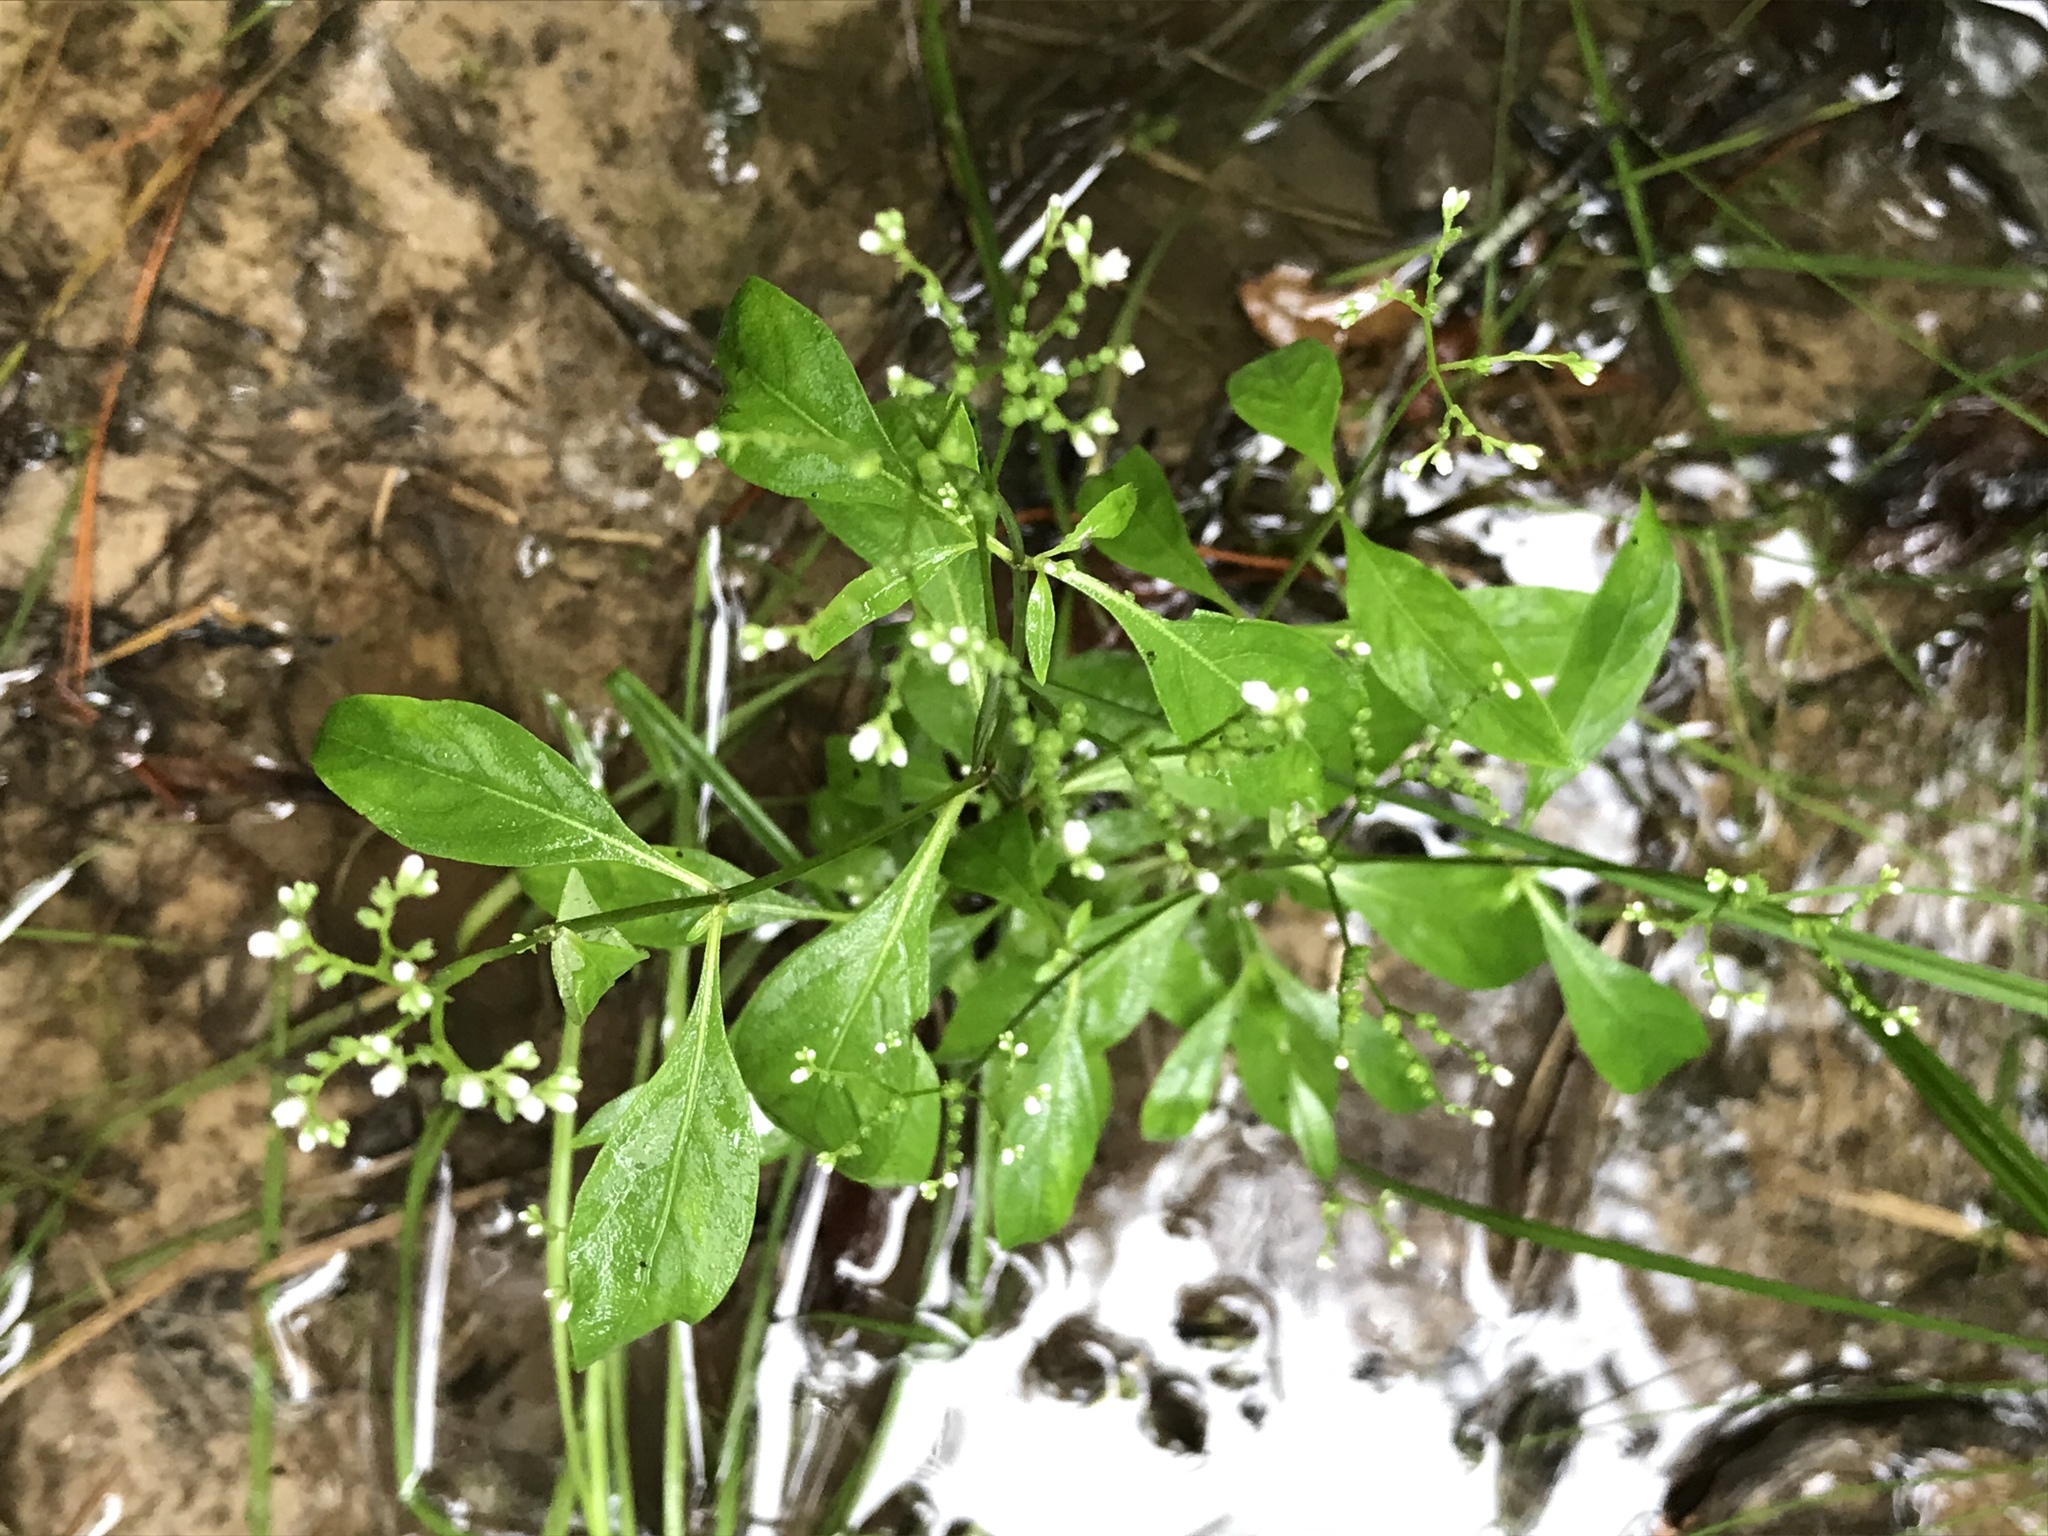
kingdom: Plantae
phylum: Tracheophyta
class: Magnoliopsida
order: Gentianales
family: Loganiaceae
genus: Mitreola
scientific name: Mitreola petiolata
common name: Lax hornpod
